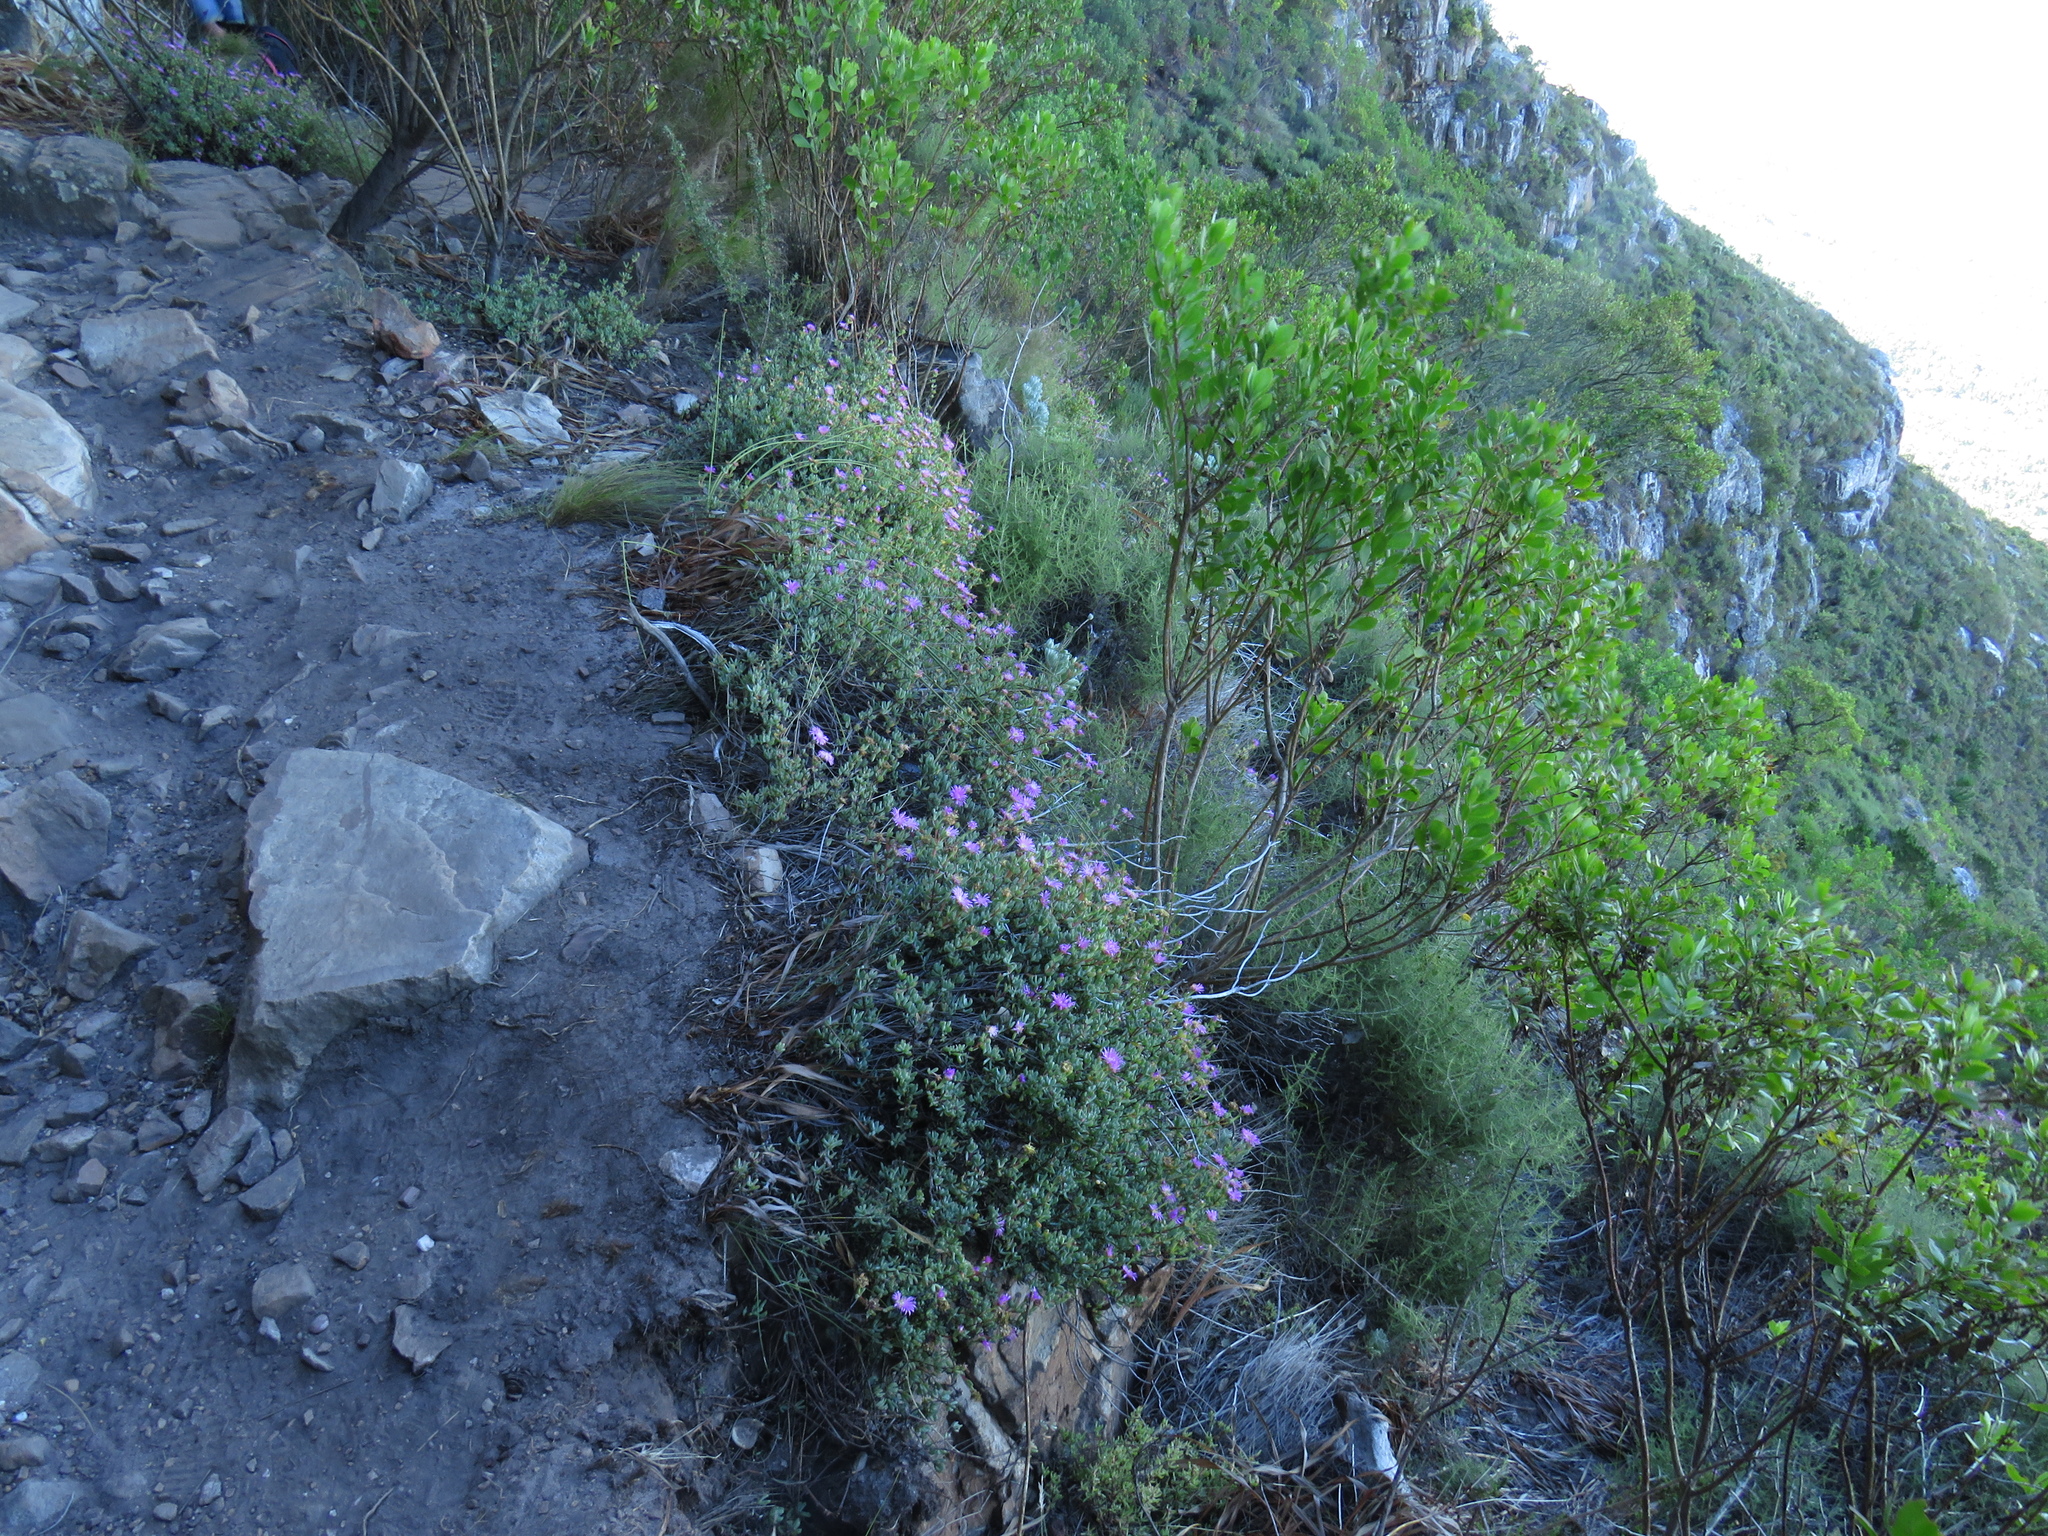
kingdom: Plantae
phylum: Tracheophyta
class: Magnoliopsida
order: Caryophyllales
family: Aizoaceae
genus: Oscularia
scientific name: Oscularia falciformis
